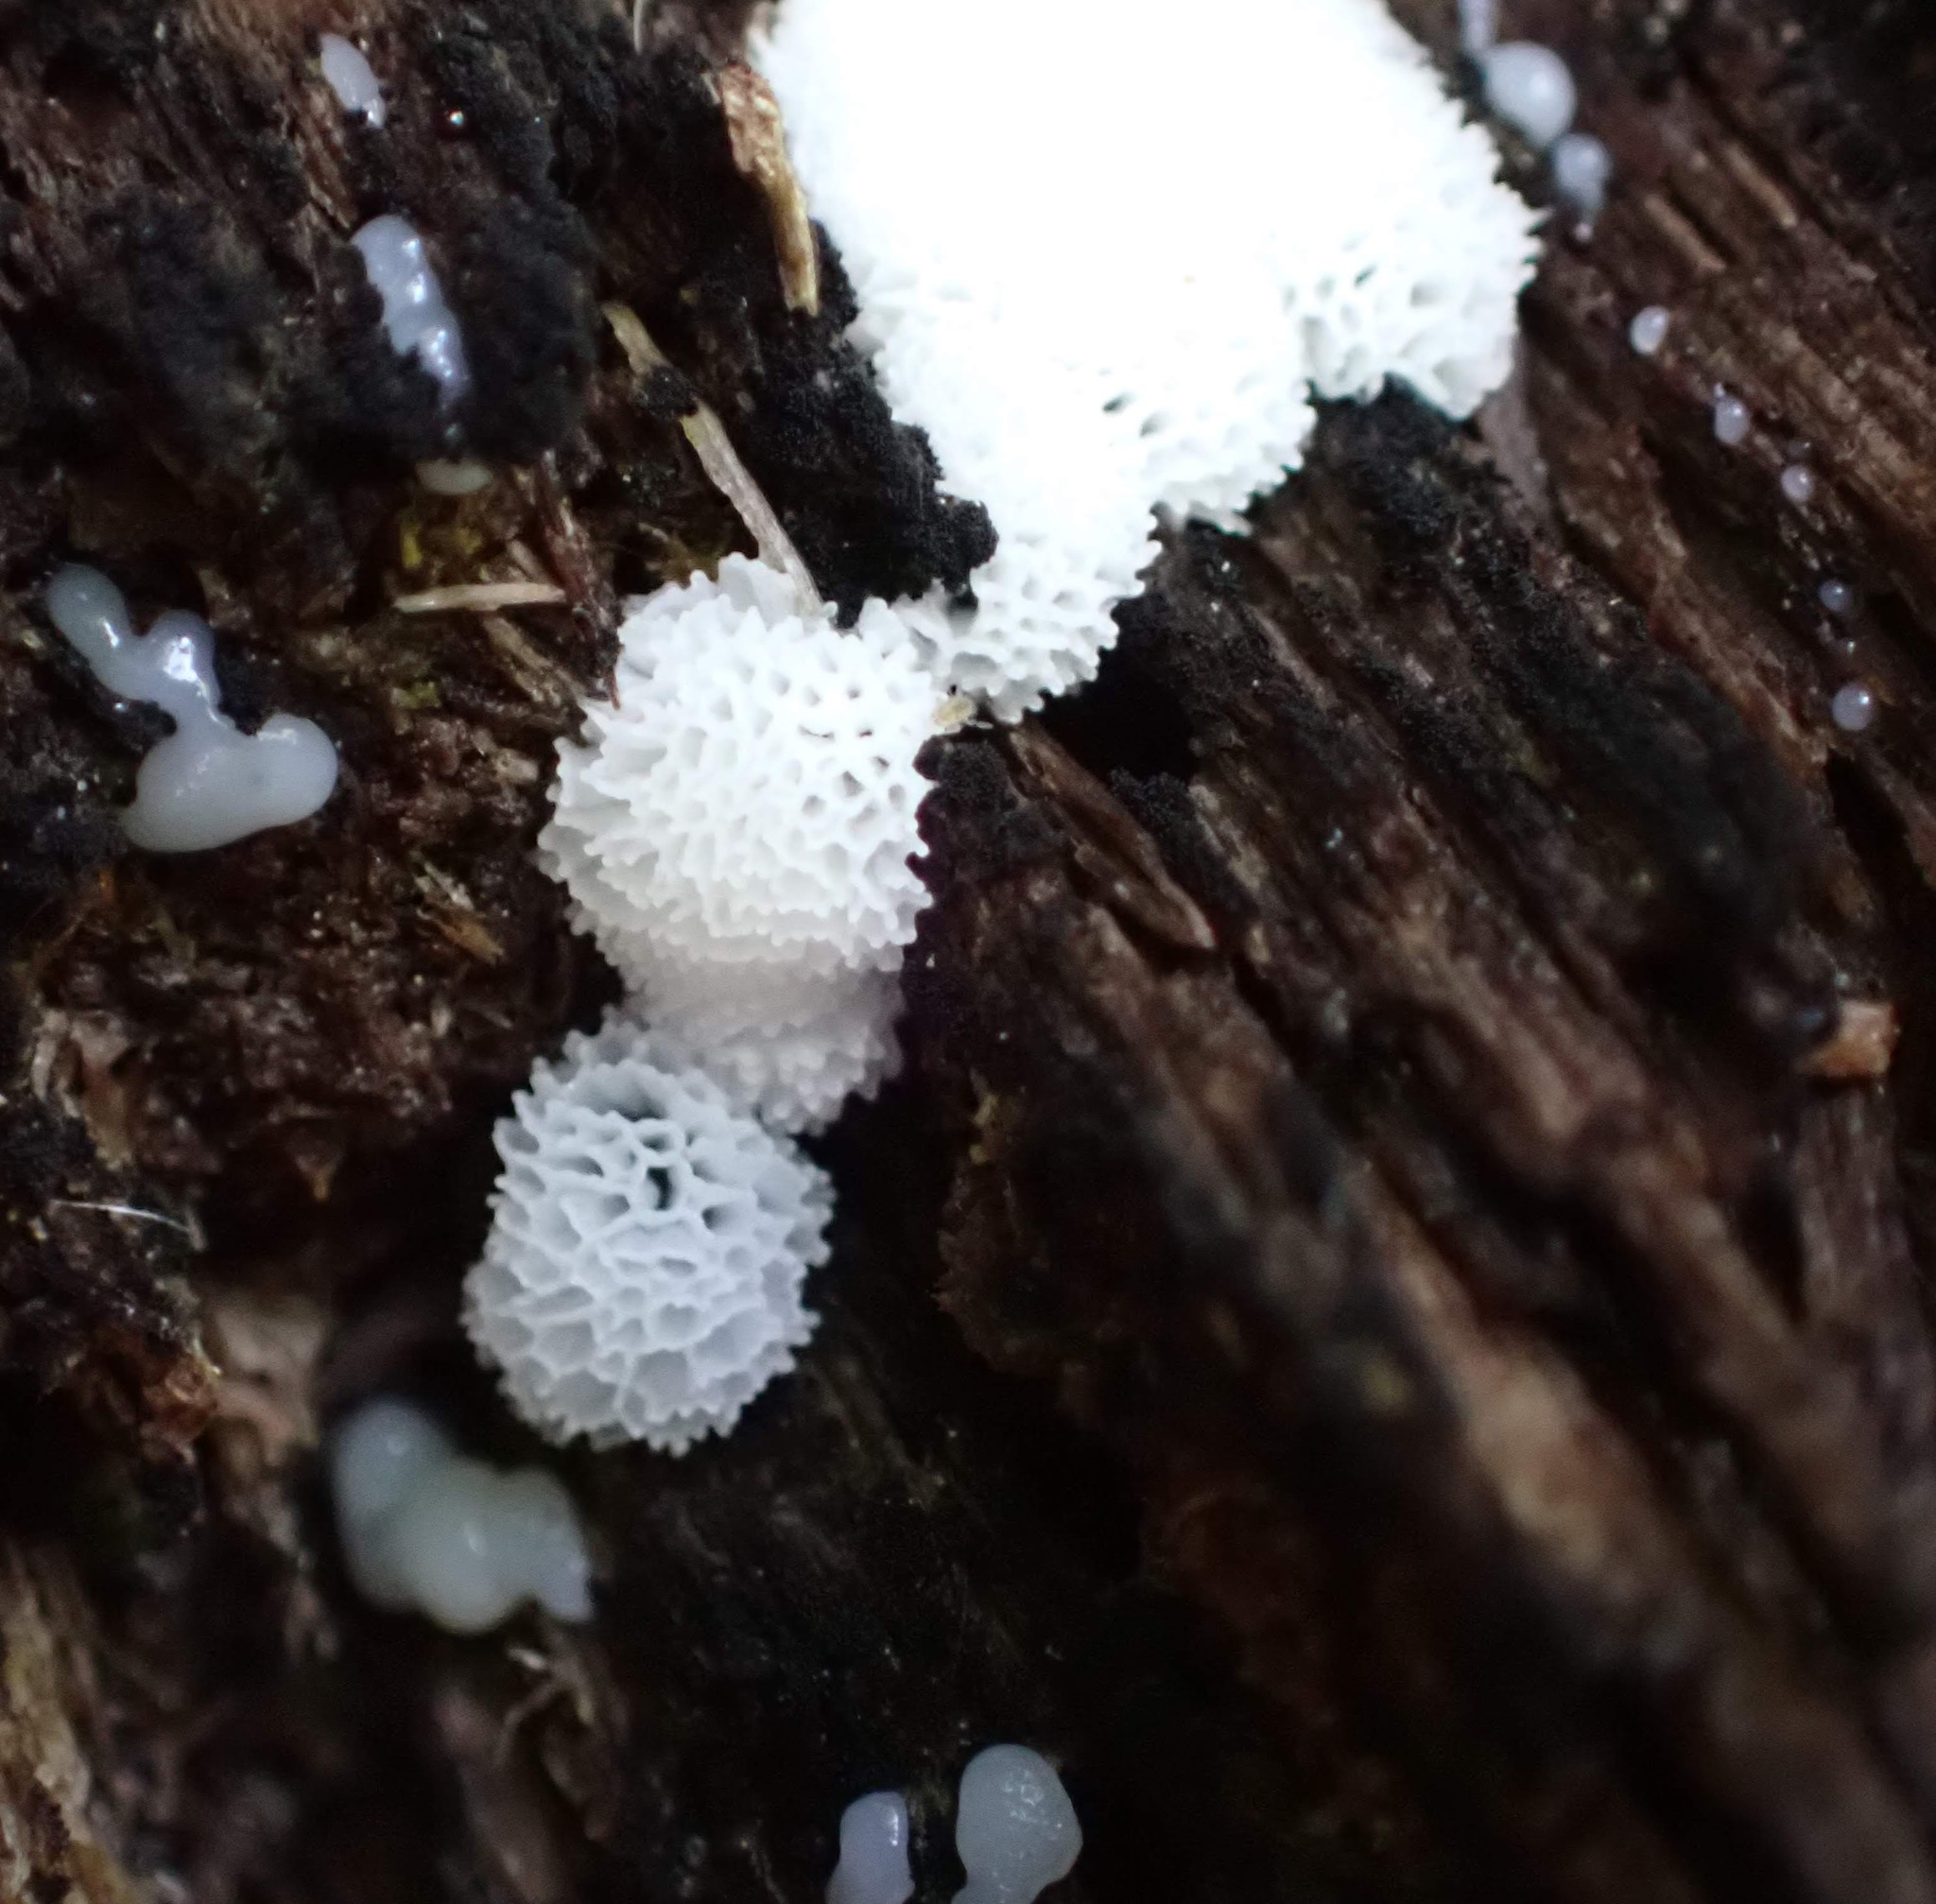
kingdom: Protozoa
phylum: Mycetozoa
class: Protosteliomycetes
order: Ceratiomyxales
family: Ceratiomyxaceae
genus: Ceratiomyxa
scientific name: Ceratiomyxa fruticulosa
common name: Honeycomb coral slime mold
